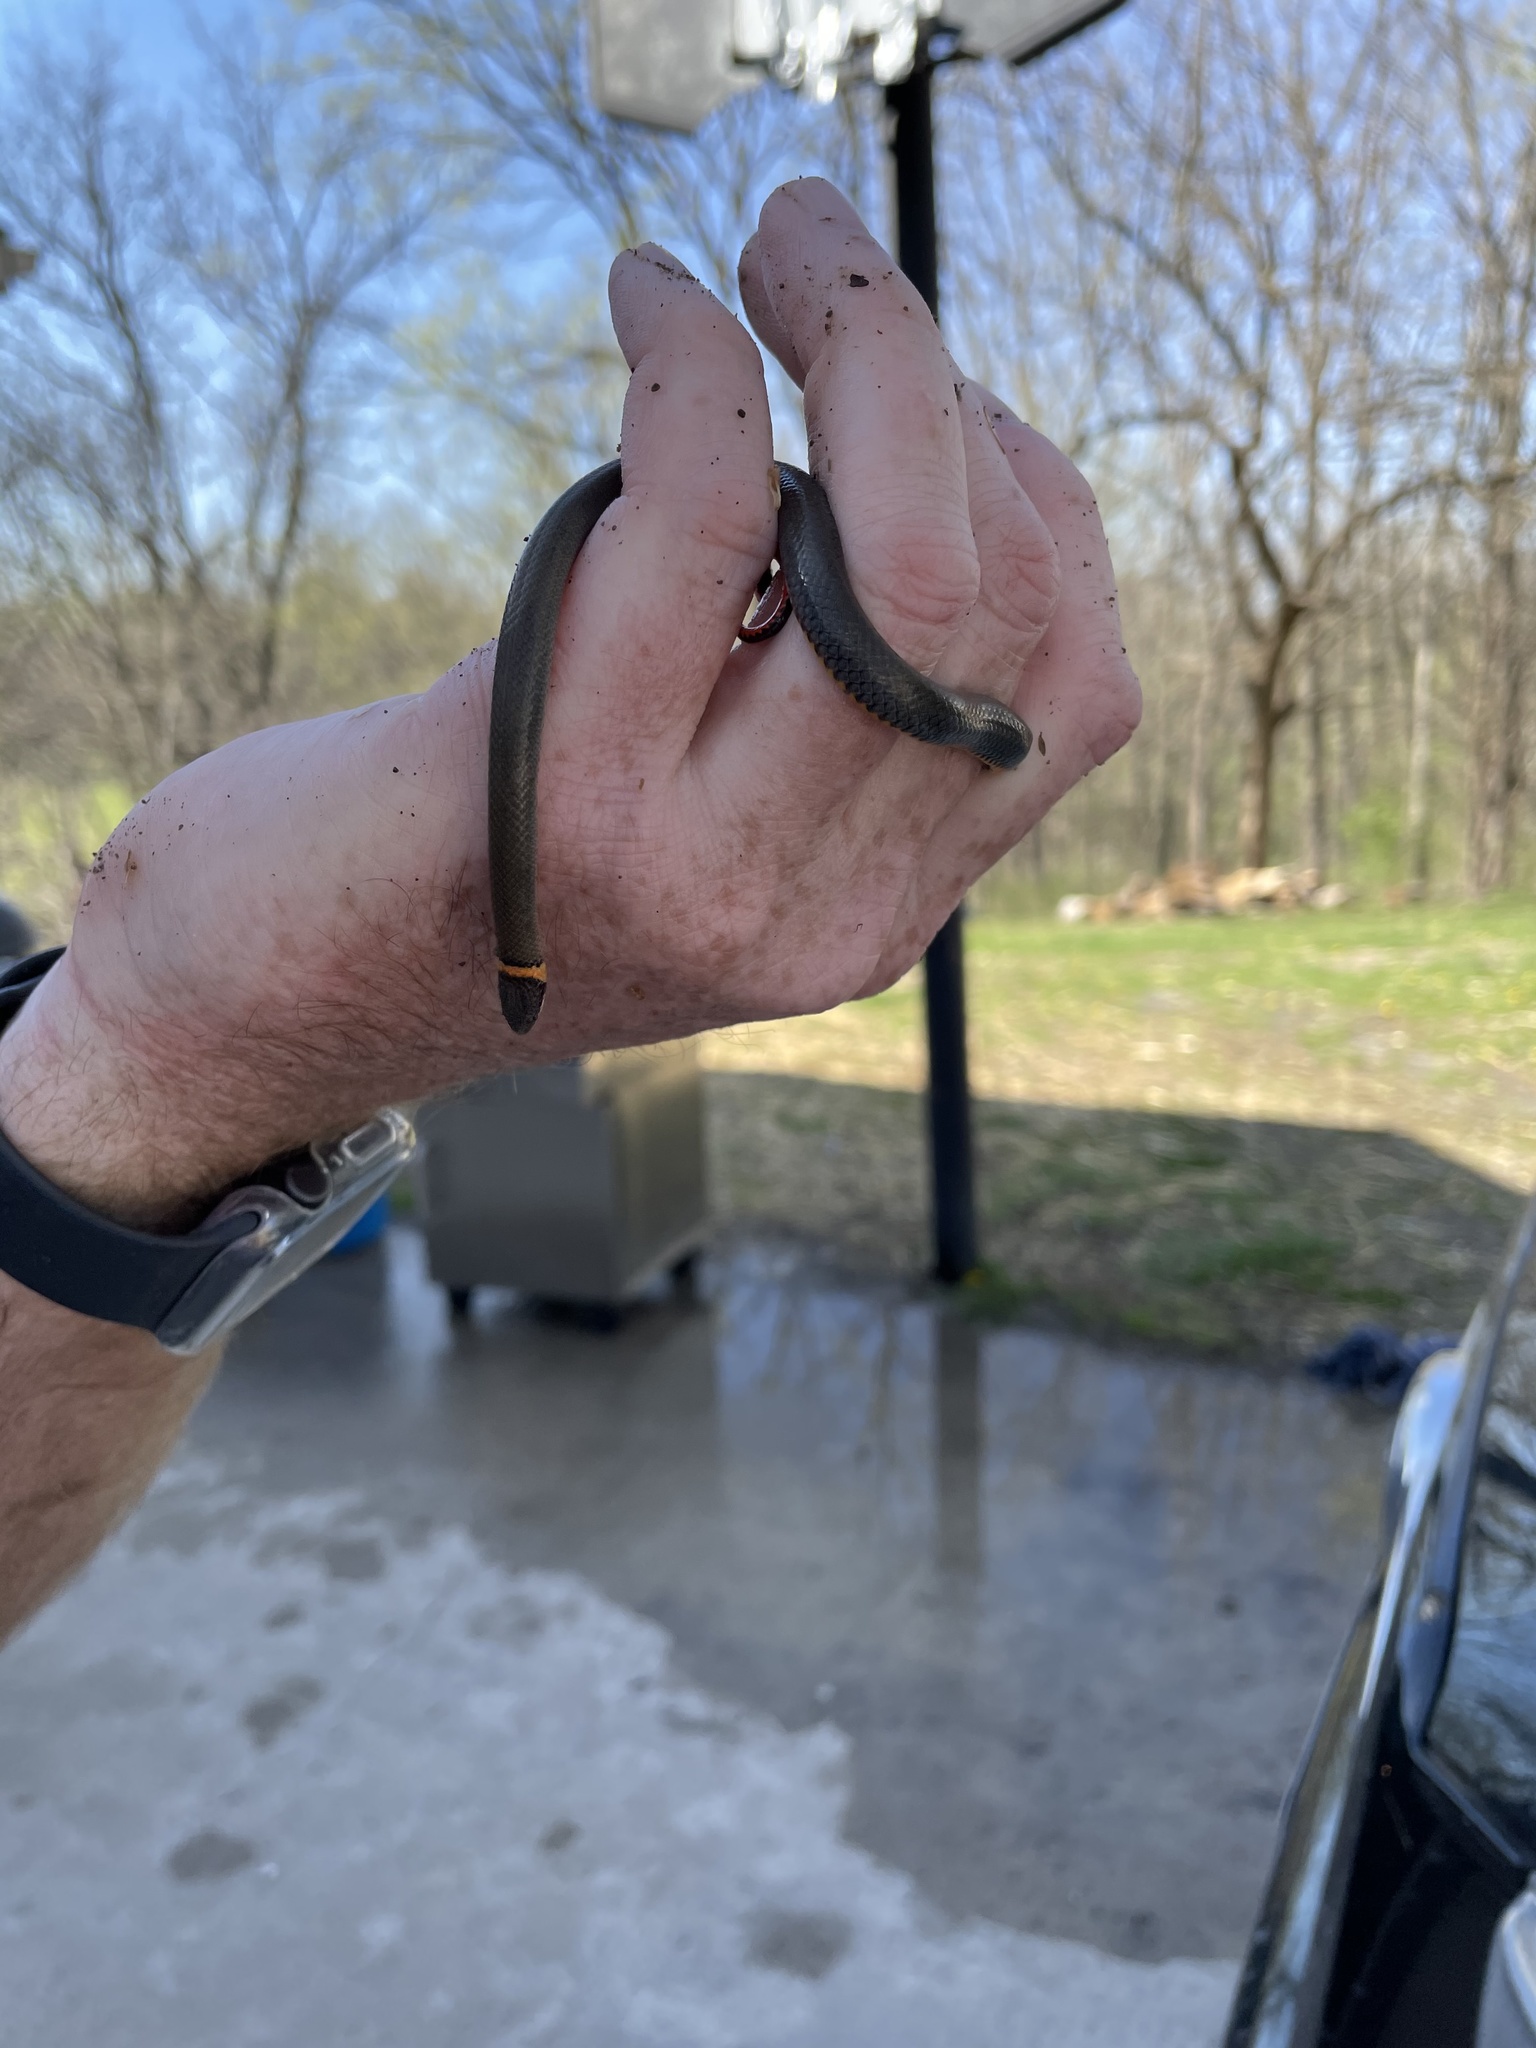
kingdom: Animalia
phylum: Chordata
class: Squamata
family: Colubridae
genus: Diadophis
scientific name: Diadophis punctatus
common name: Ringneck snake
